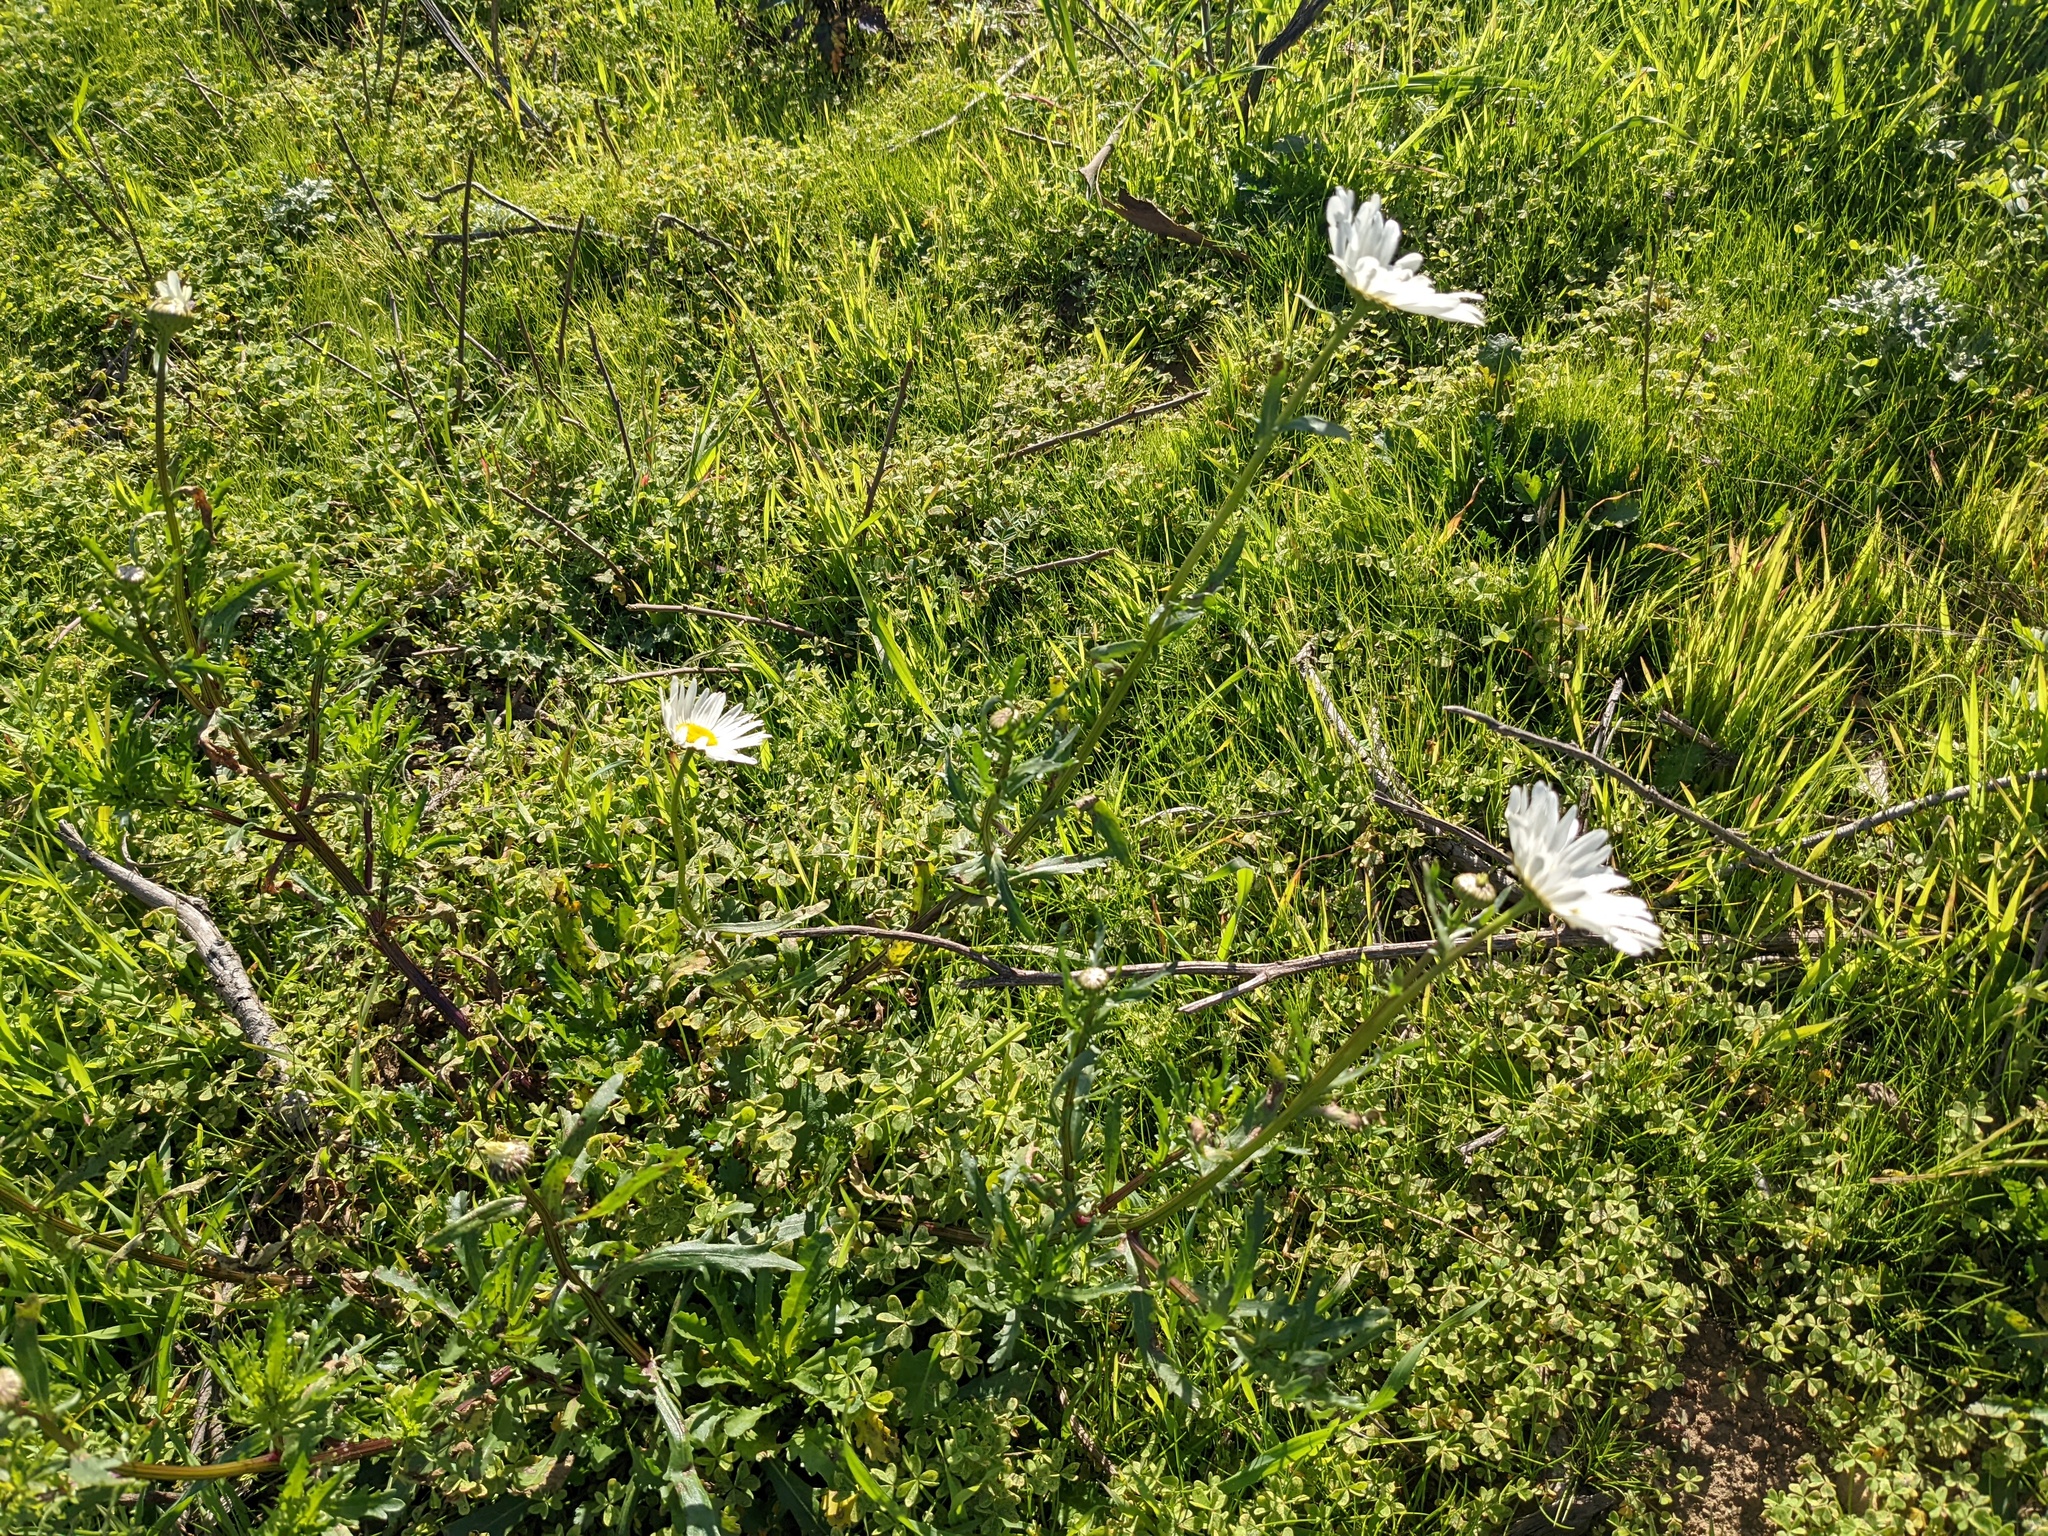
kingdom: Plantae
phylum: Tracheophyta
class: Magnoliopsida
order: Asterales
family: Asteraceae
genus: Leucanthemum
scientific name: Leucanthemum vulgare
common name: Oxeye daisy
